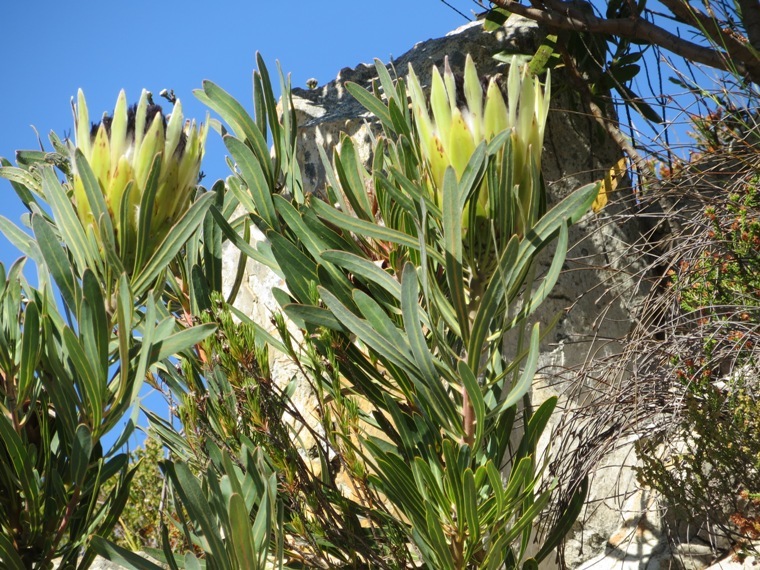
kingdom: Plantae
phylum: Tracheophyta
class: Magnoliopsida
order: Proteales
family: Proteaceae
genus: Protea
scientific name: Protea longifolia
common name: Long-leaf sugarbush
